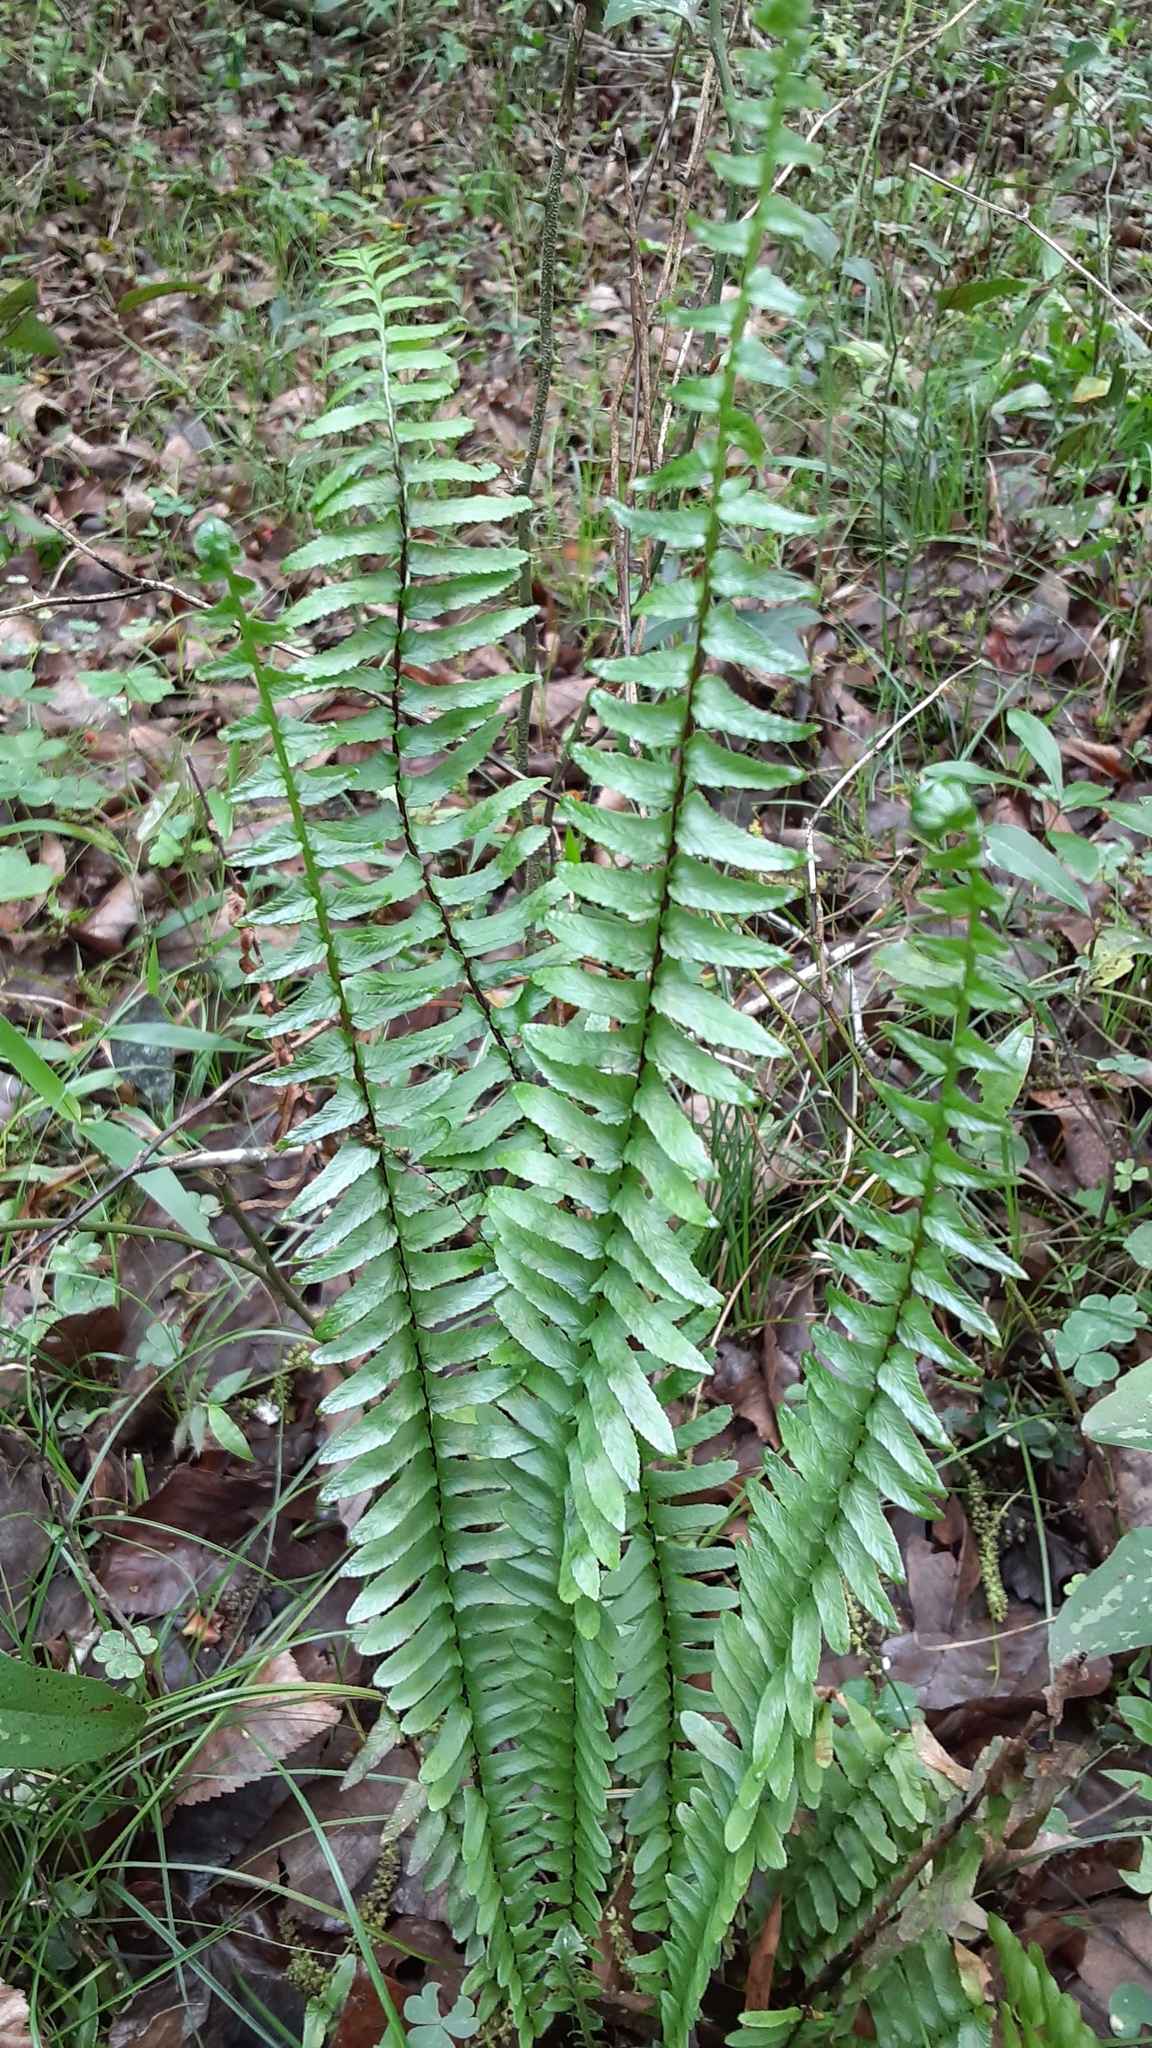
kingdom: Plantae
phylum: Tracheophyta
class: Polypodiopsida
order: Polypodiales
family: Aspleniaceae
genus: Asplenium
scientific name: Asplenium platyneuron
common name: Ebony spleenwort
